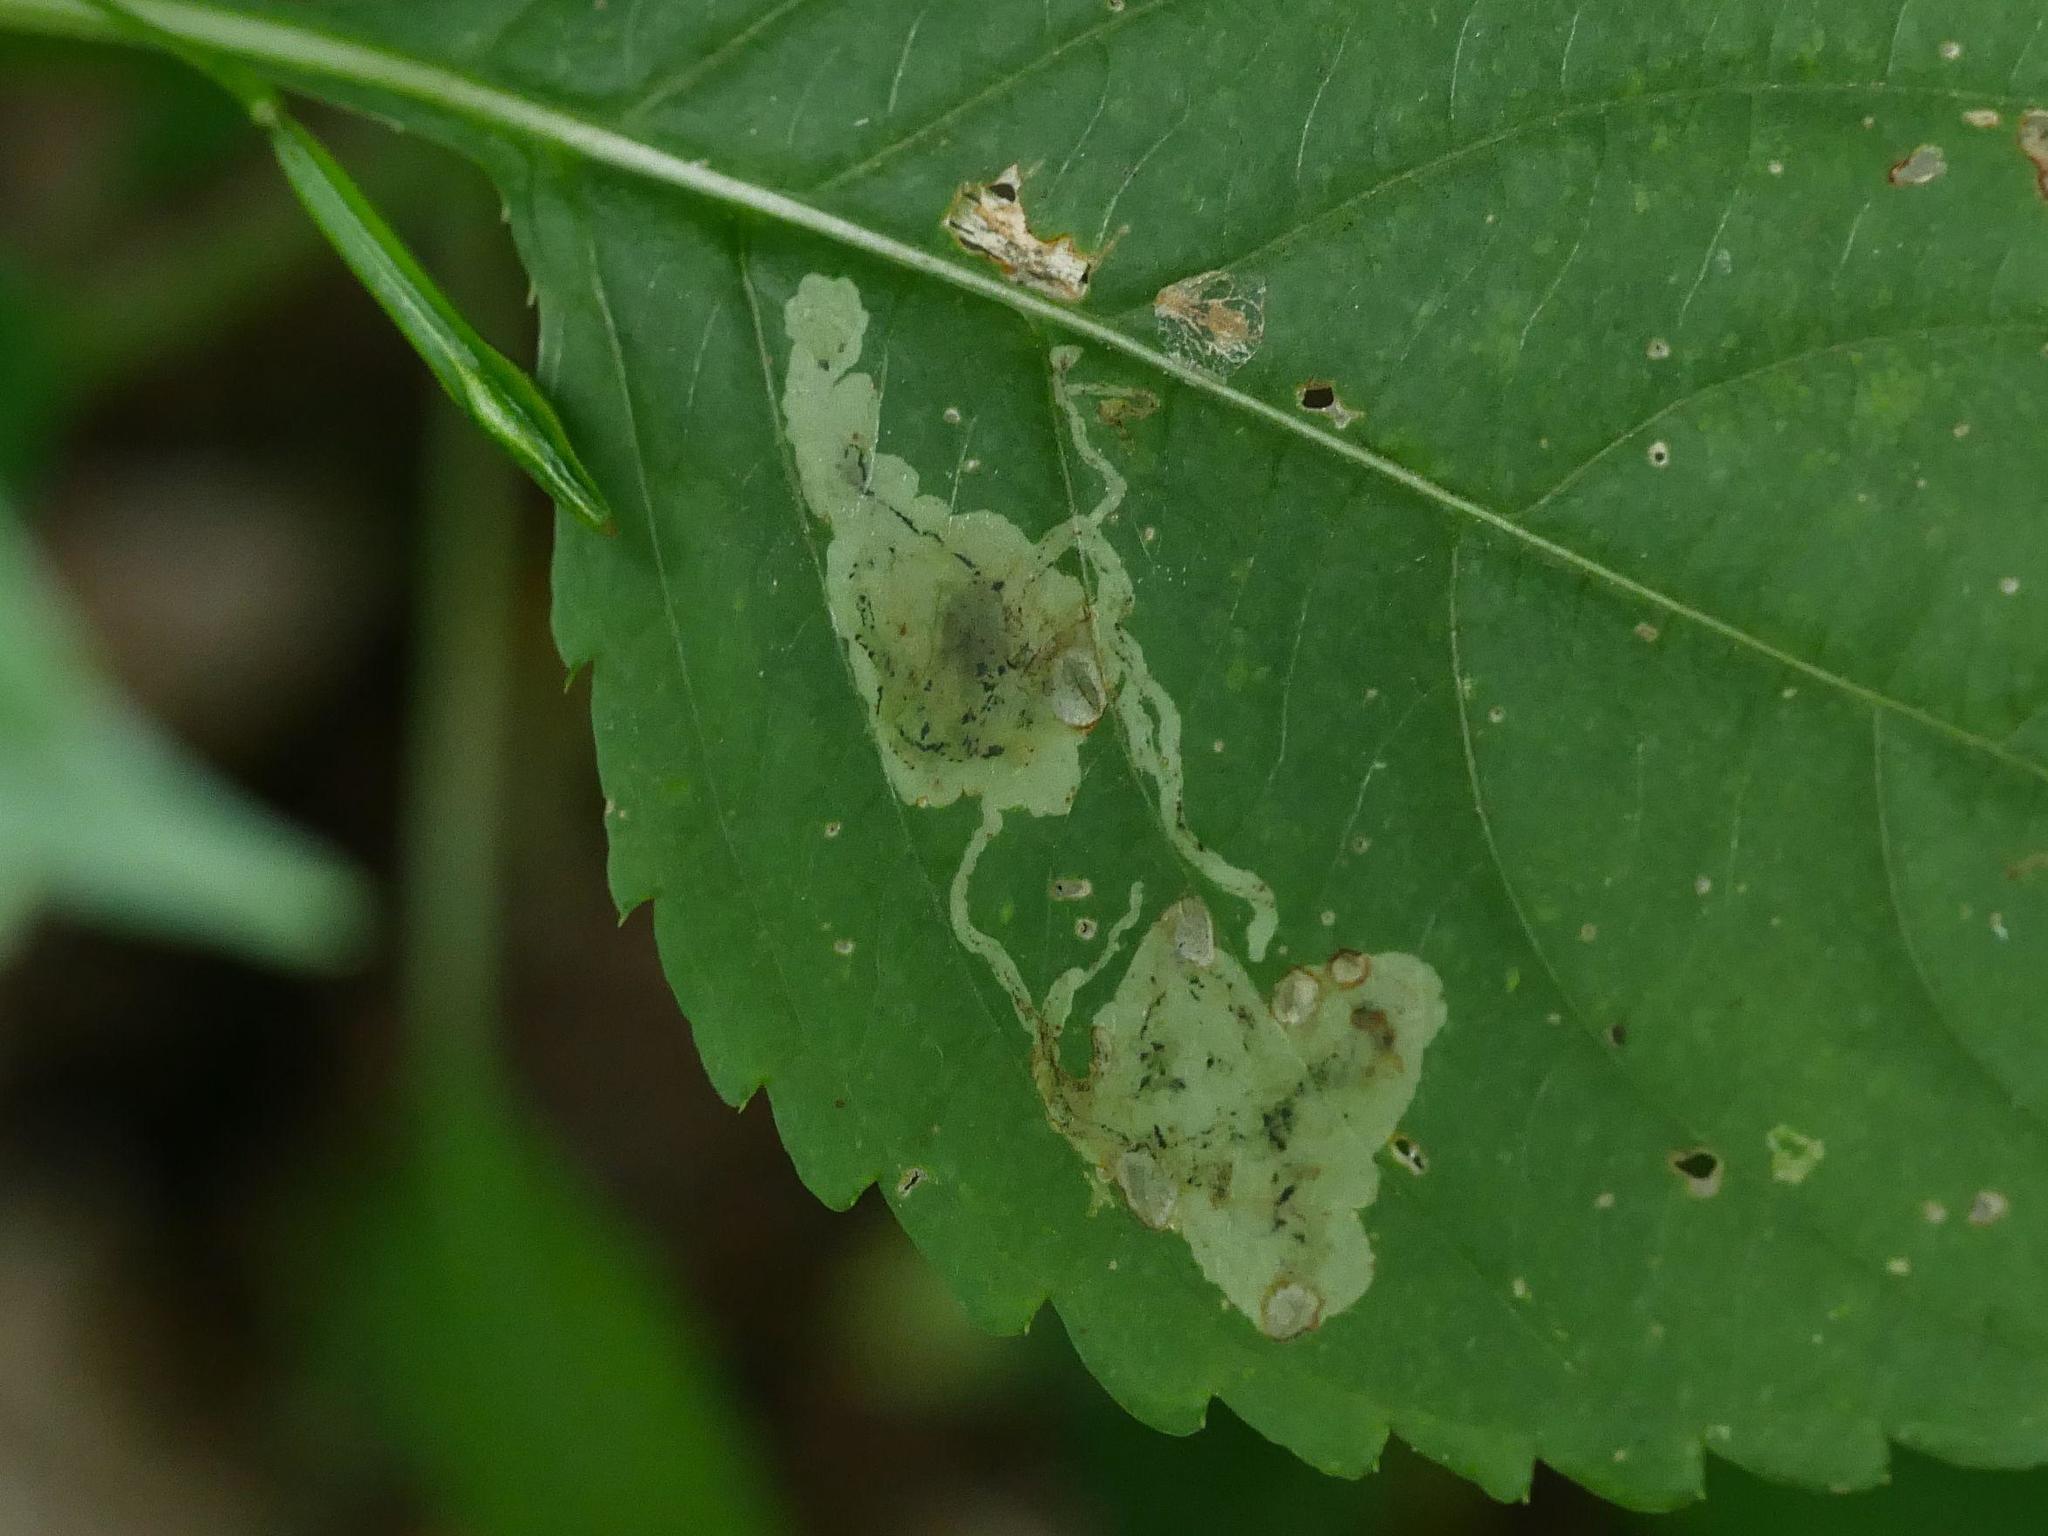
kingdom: Animalia
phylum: Arthropoda
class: Insecta
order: Diptera
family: Agromyzidae
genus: Phytoliriomyza
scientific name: Phytoliriomyza melampyga
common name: Jewelweed leaf-miner fly
